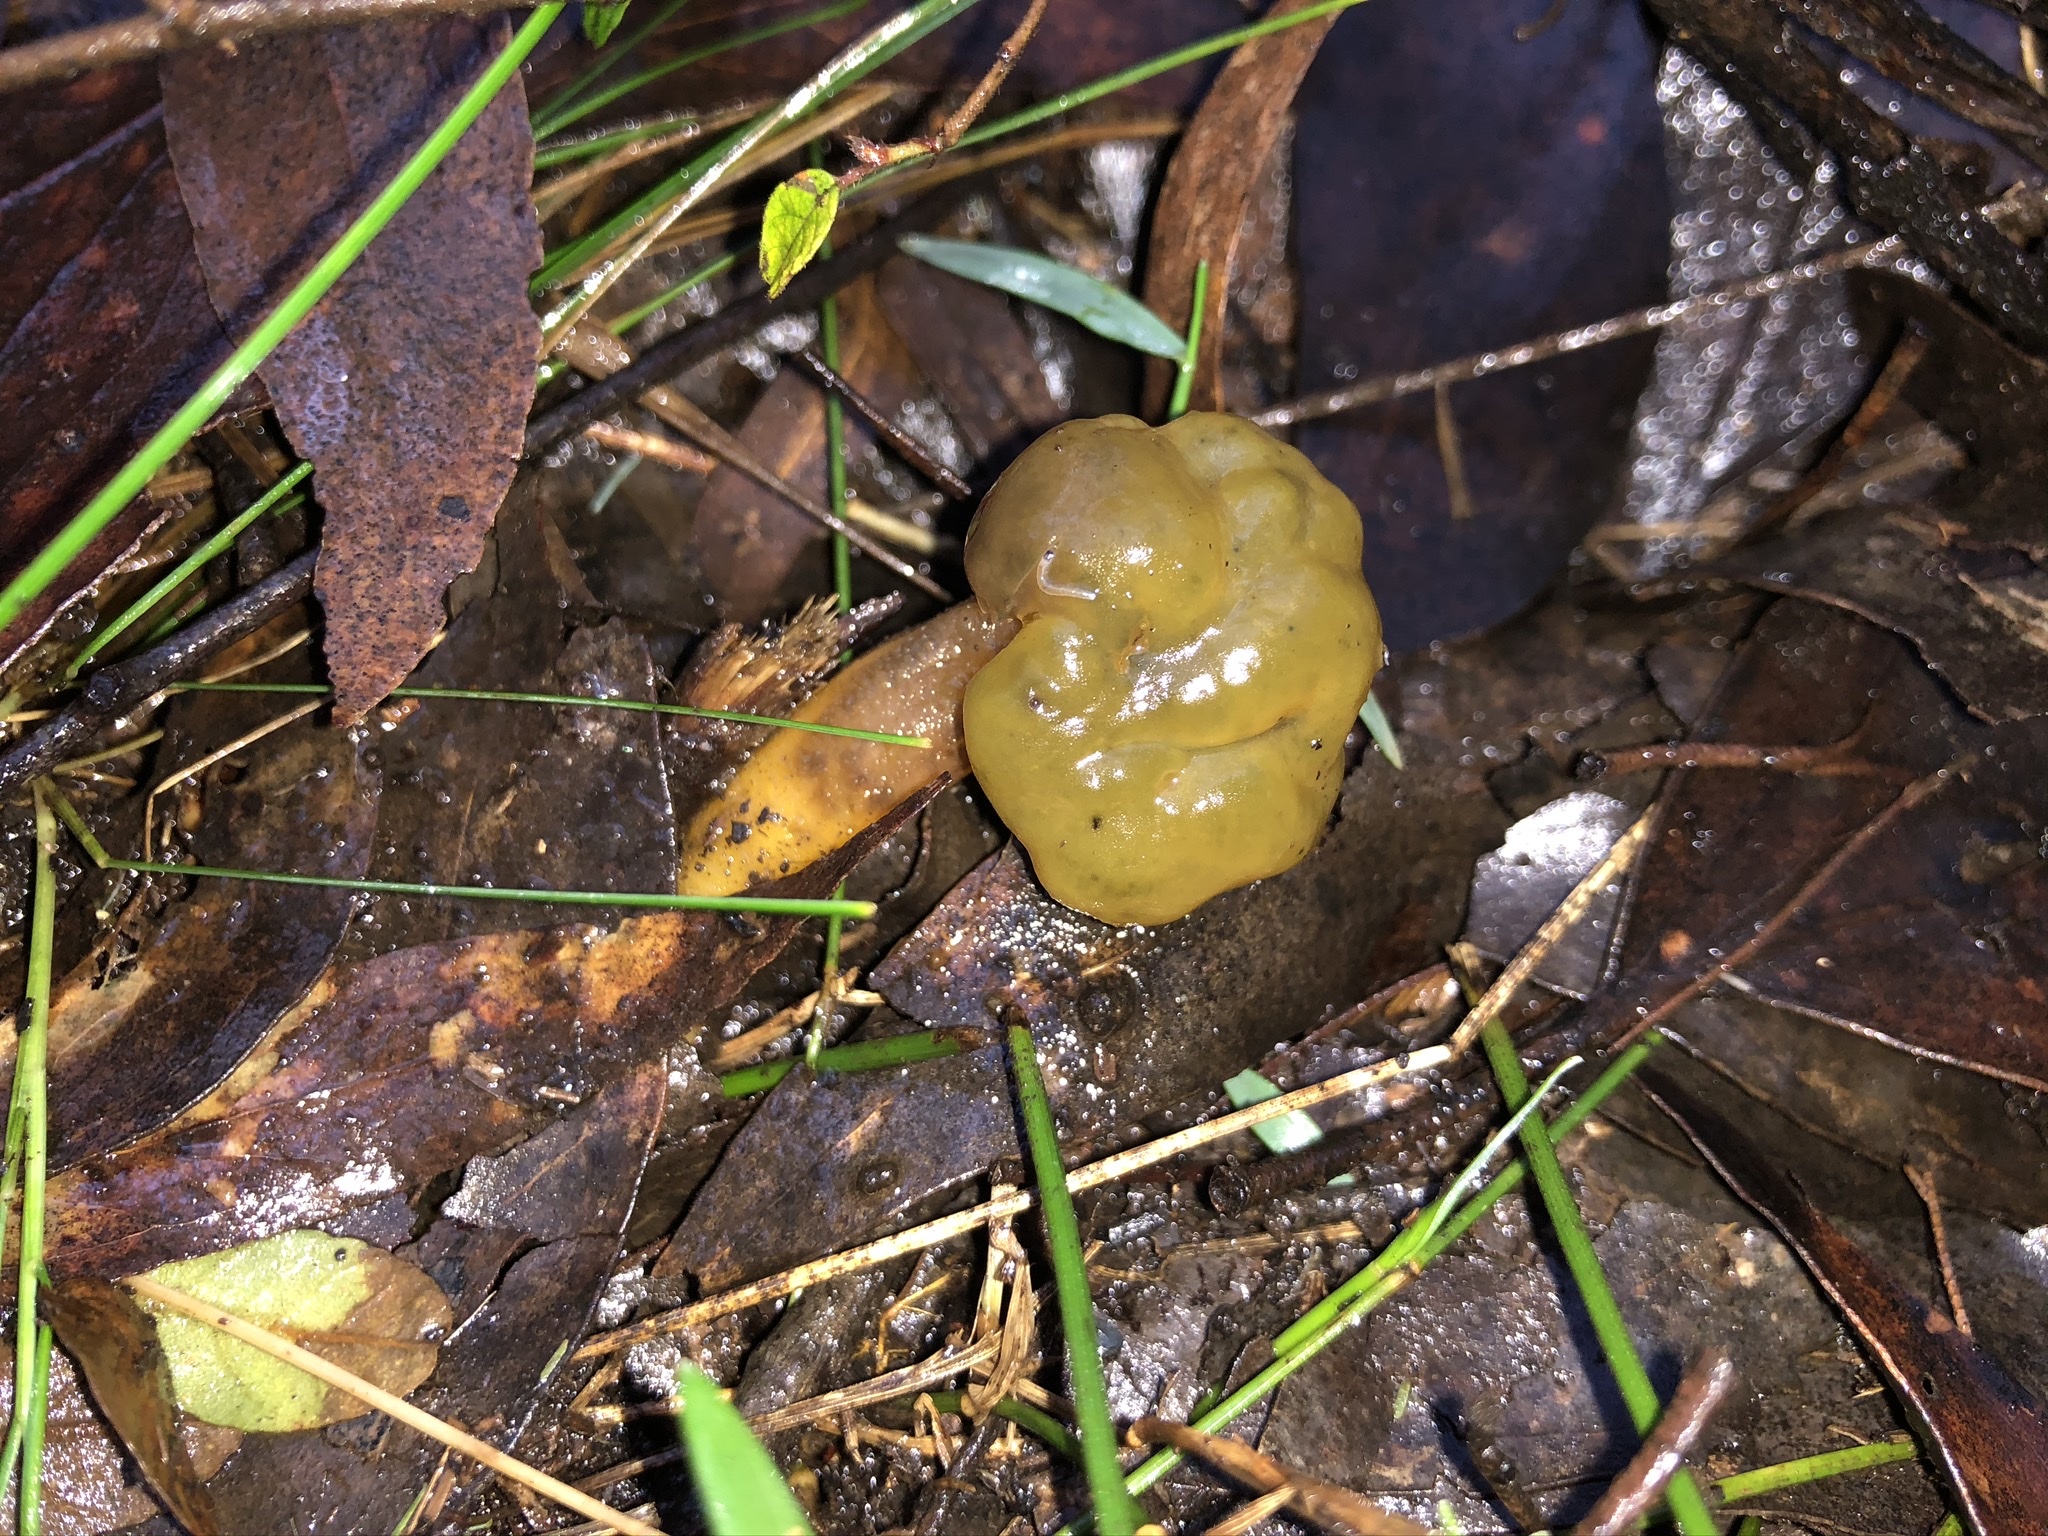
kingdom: Fungi
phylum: Ascomycota
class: Leotiomycetes
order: Leotiales
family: Leotiaceae
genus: Leotia
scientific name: Leotia lubrica
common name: Jellybaby
